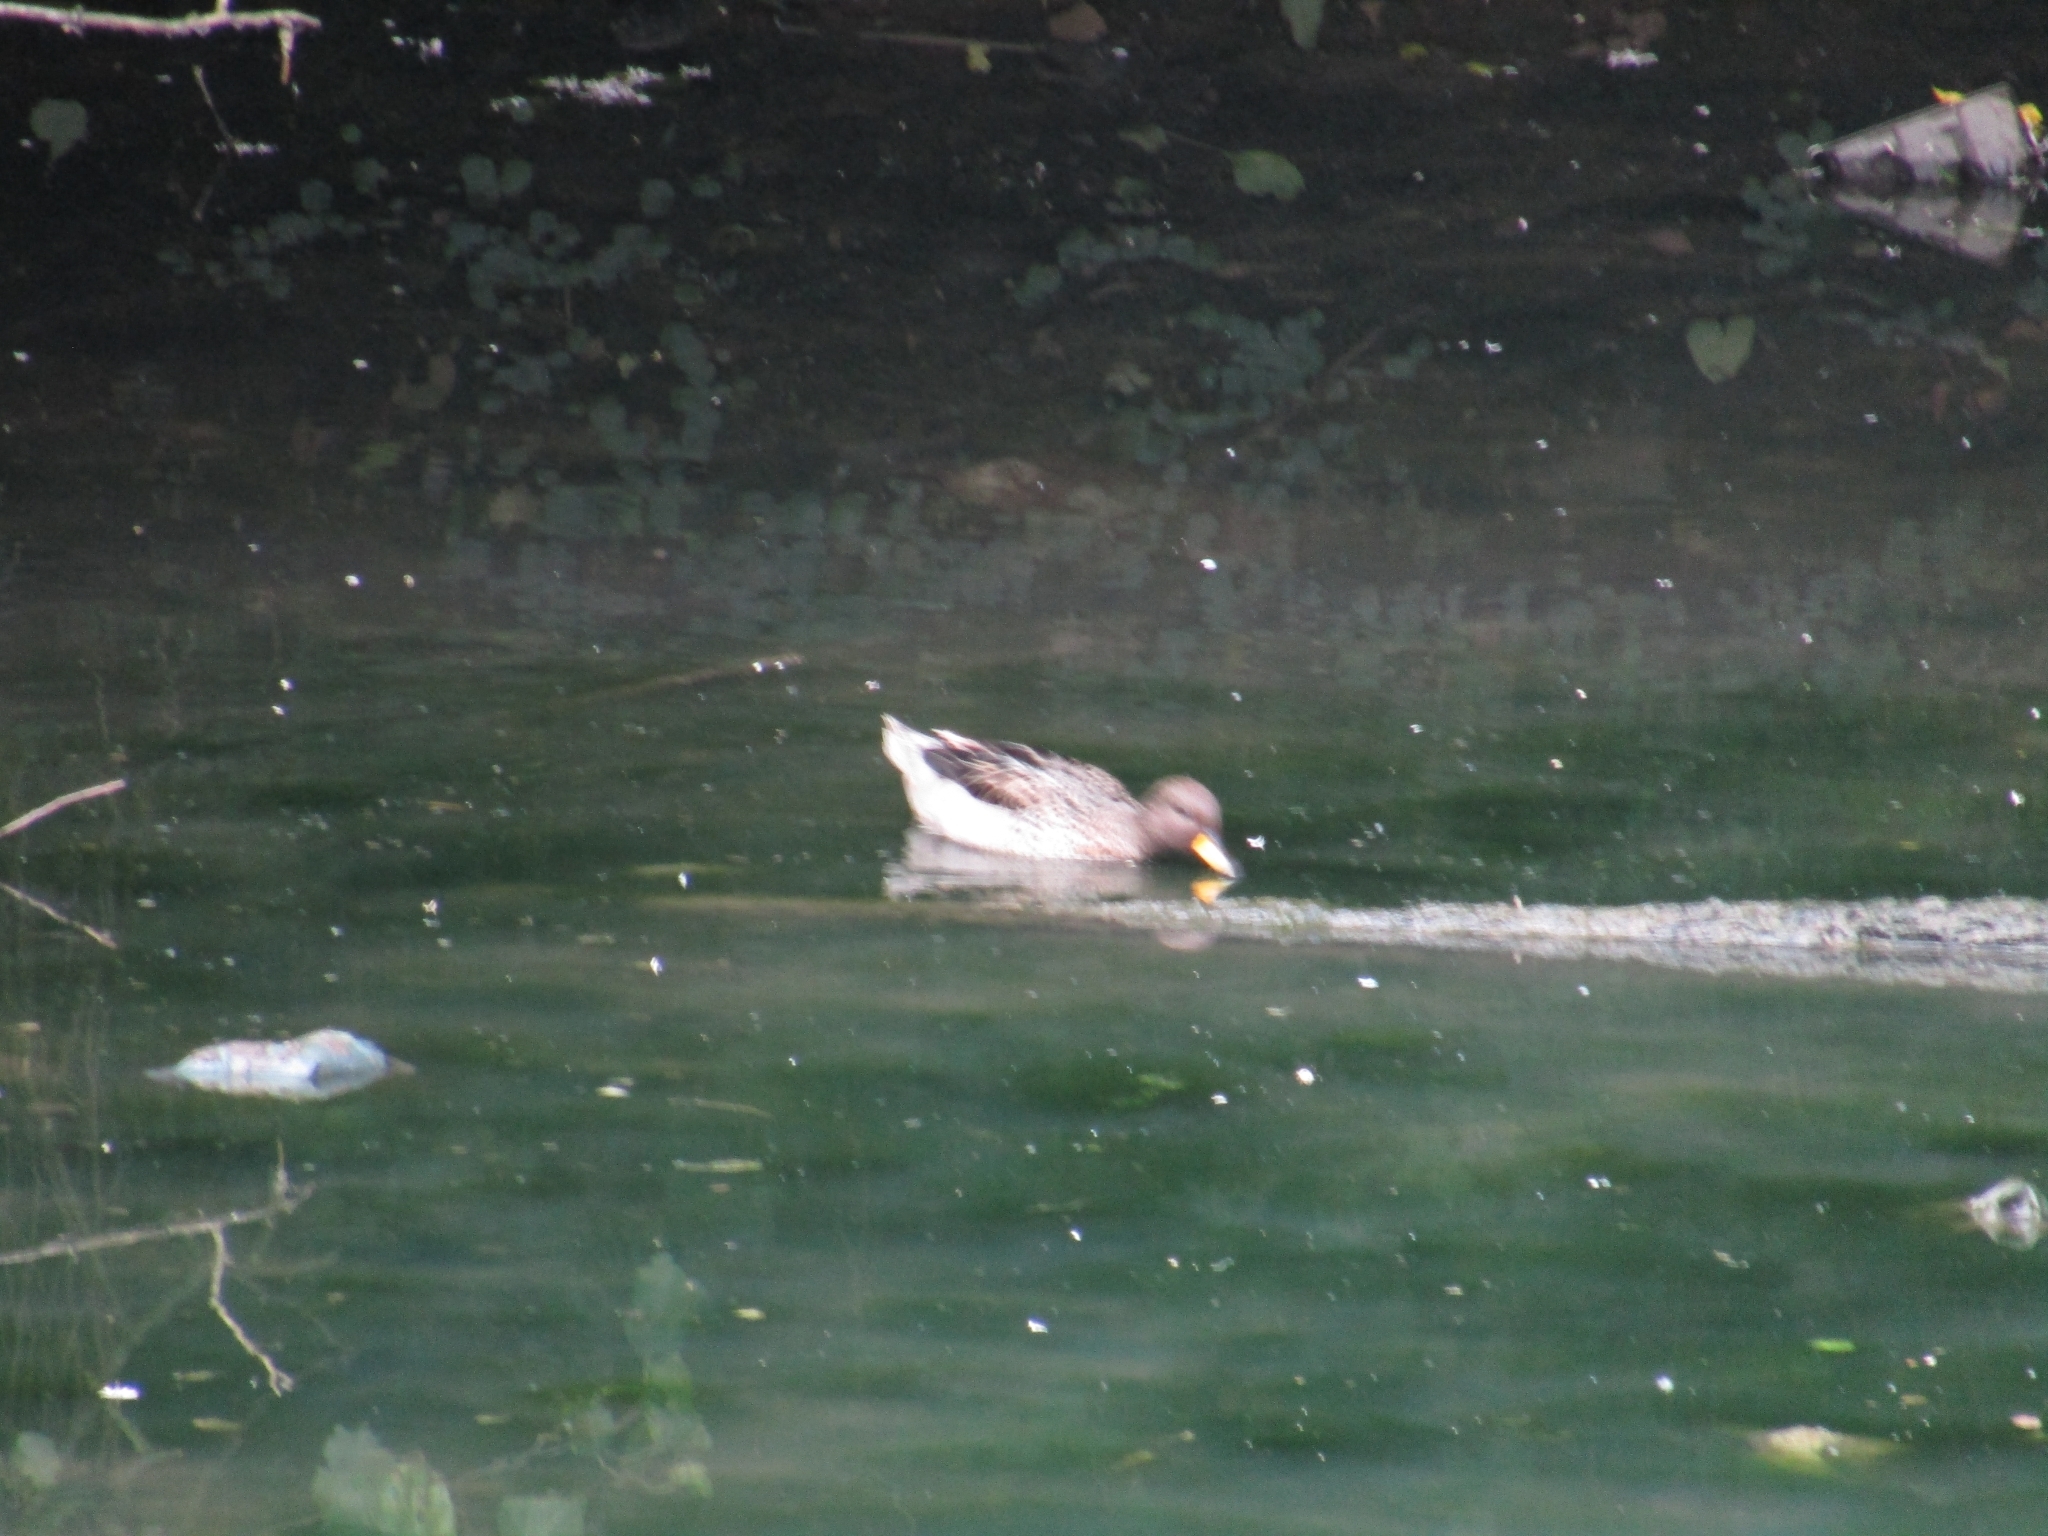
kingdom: Animalia
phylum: Chordata
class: Aves
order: Anseriformes
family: Anatidae
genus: Anas
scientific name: Anas flavirostris
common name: Yellow-billed teal
